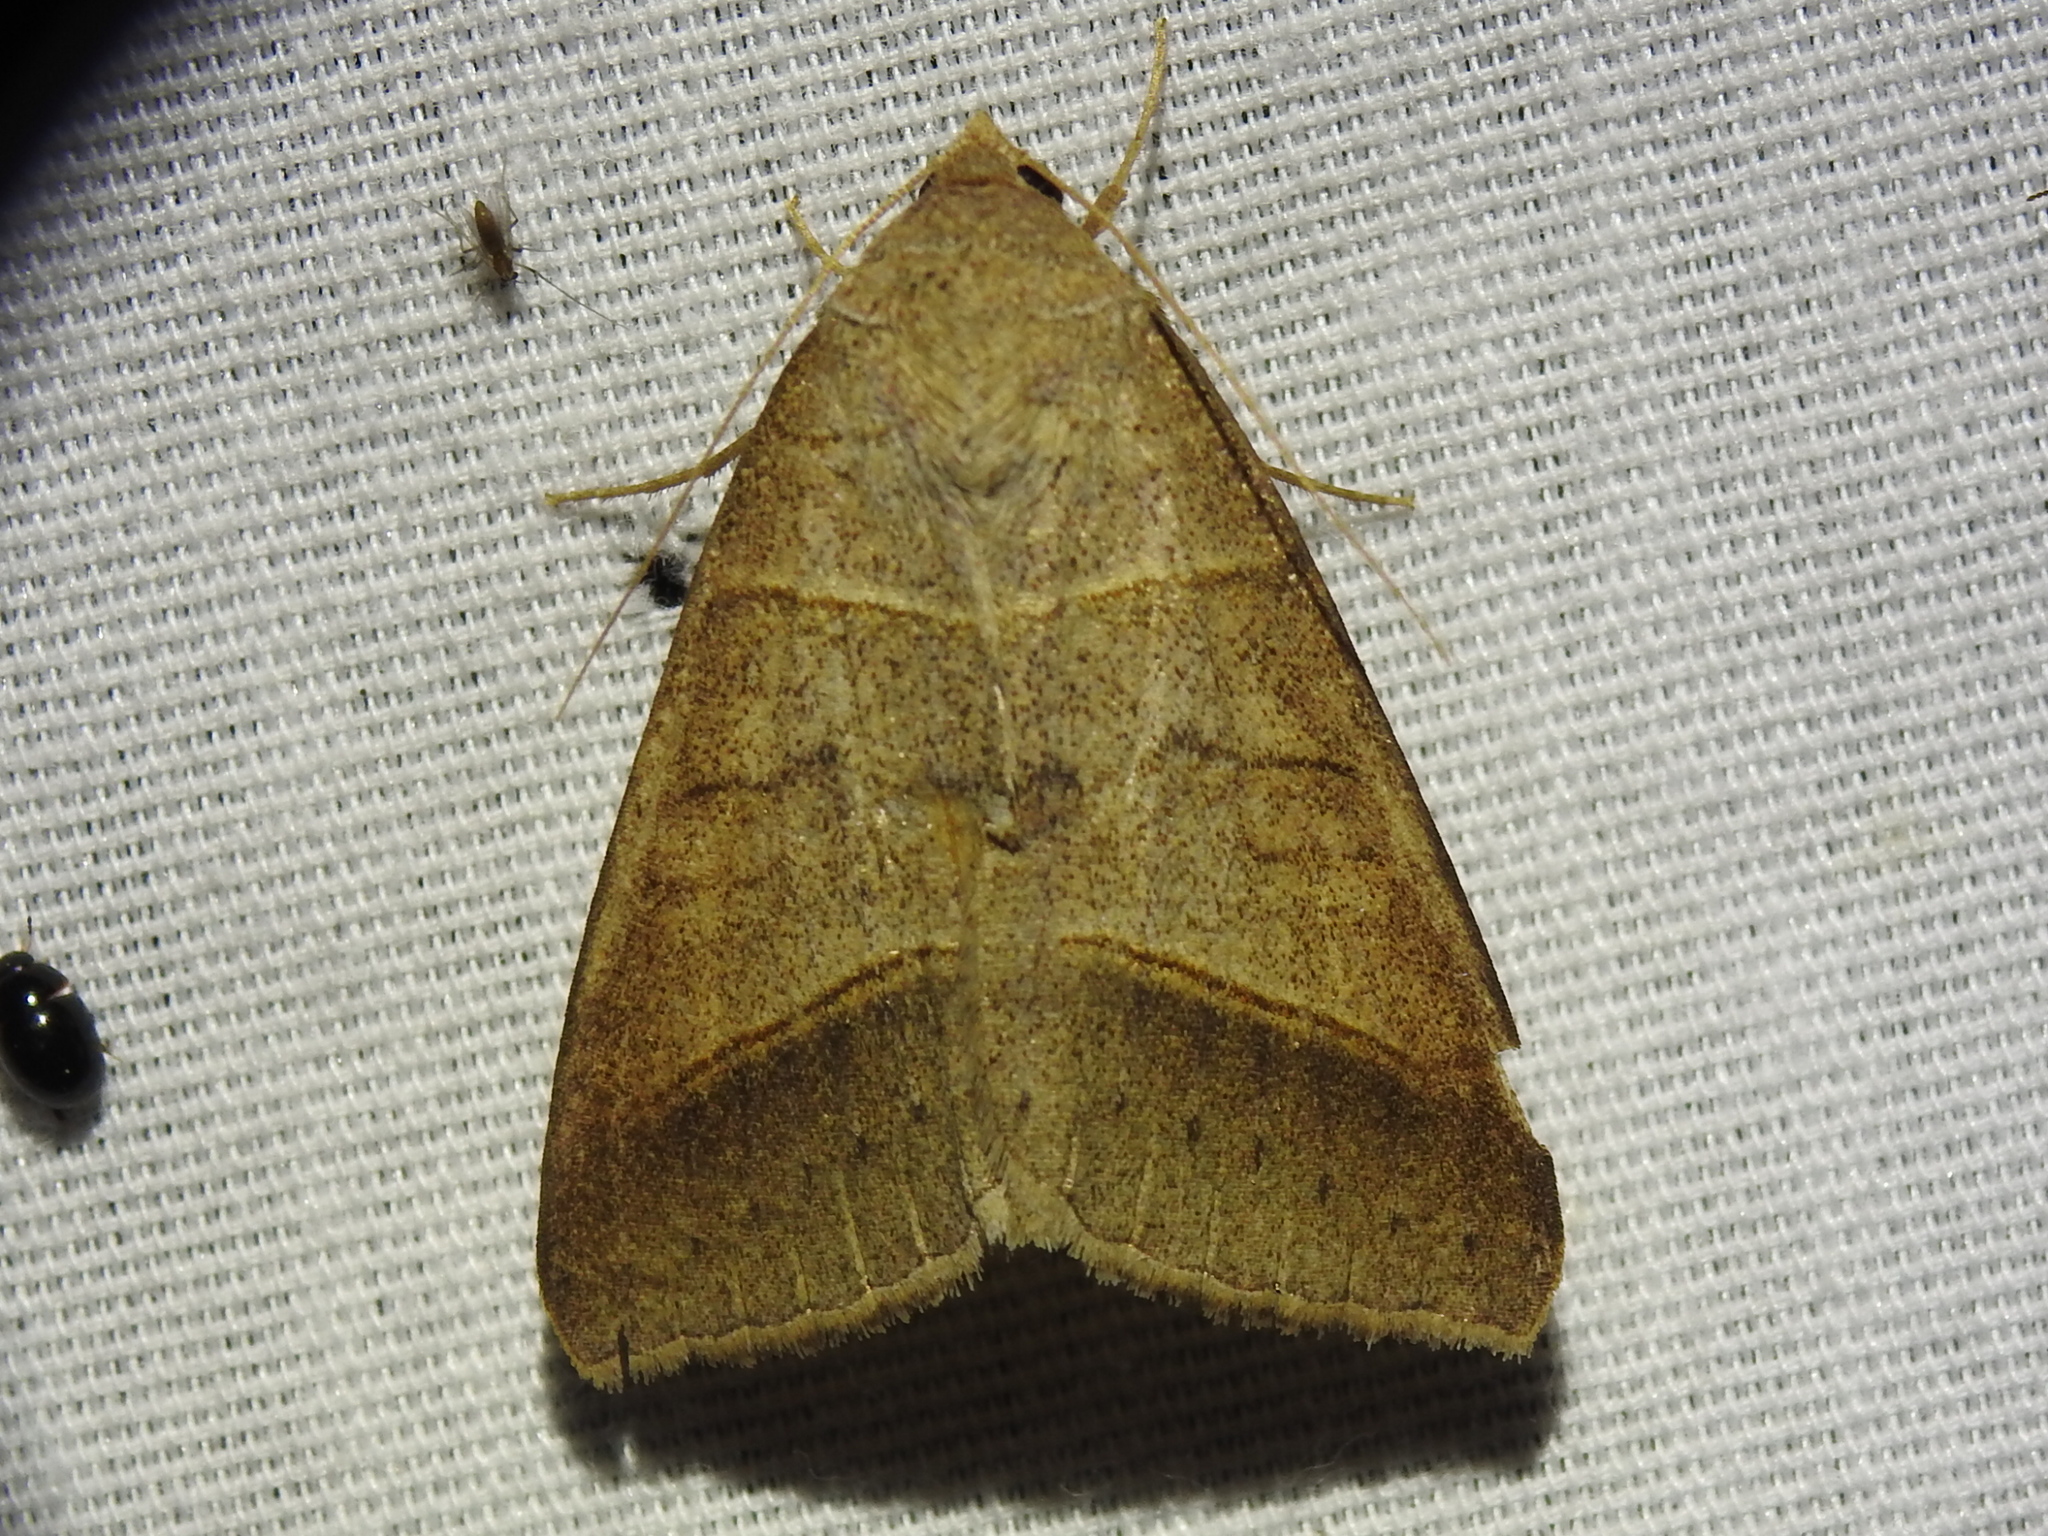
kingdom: Animalia
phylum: Arthropoda
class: Insecta
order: Lepidoptera
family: Erebidae
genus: Mocis
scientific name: Mocis texana
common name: Texas mocis moth
